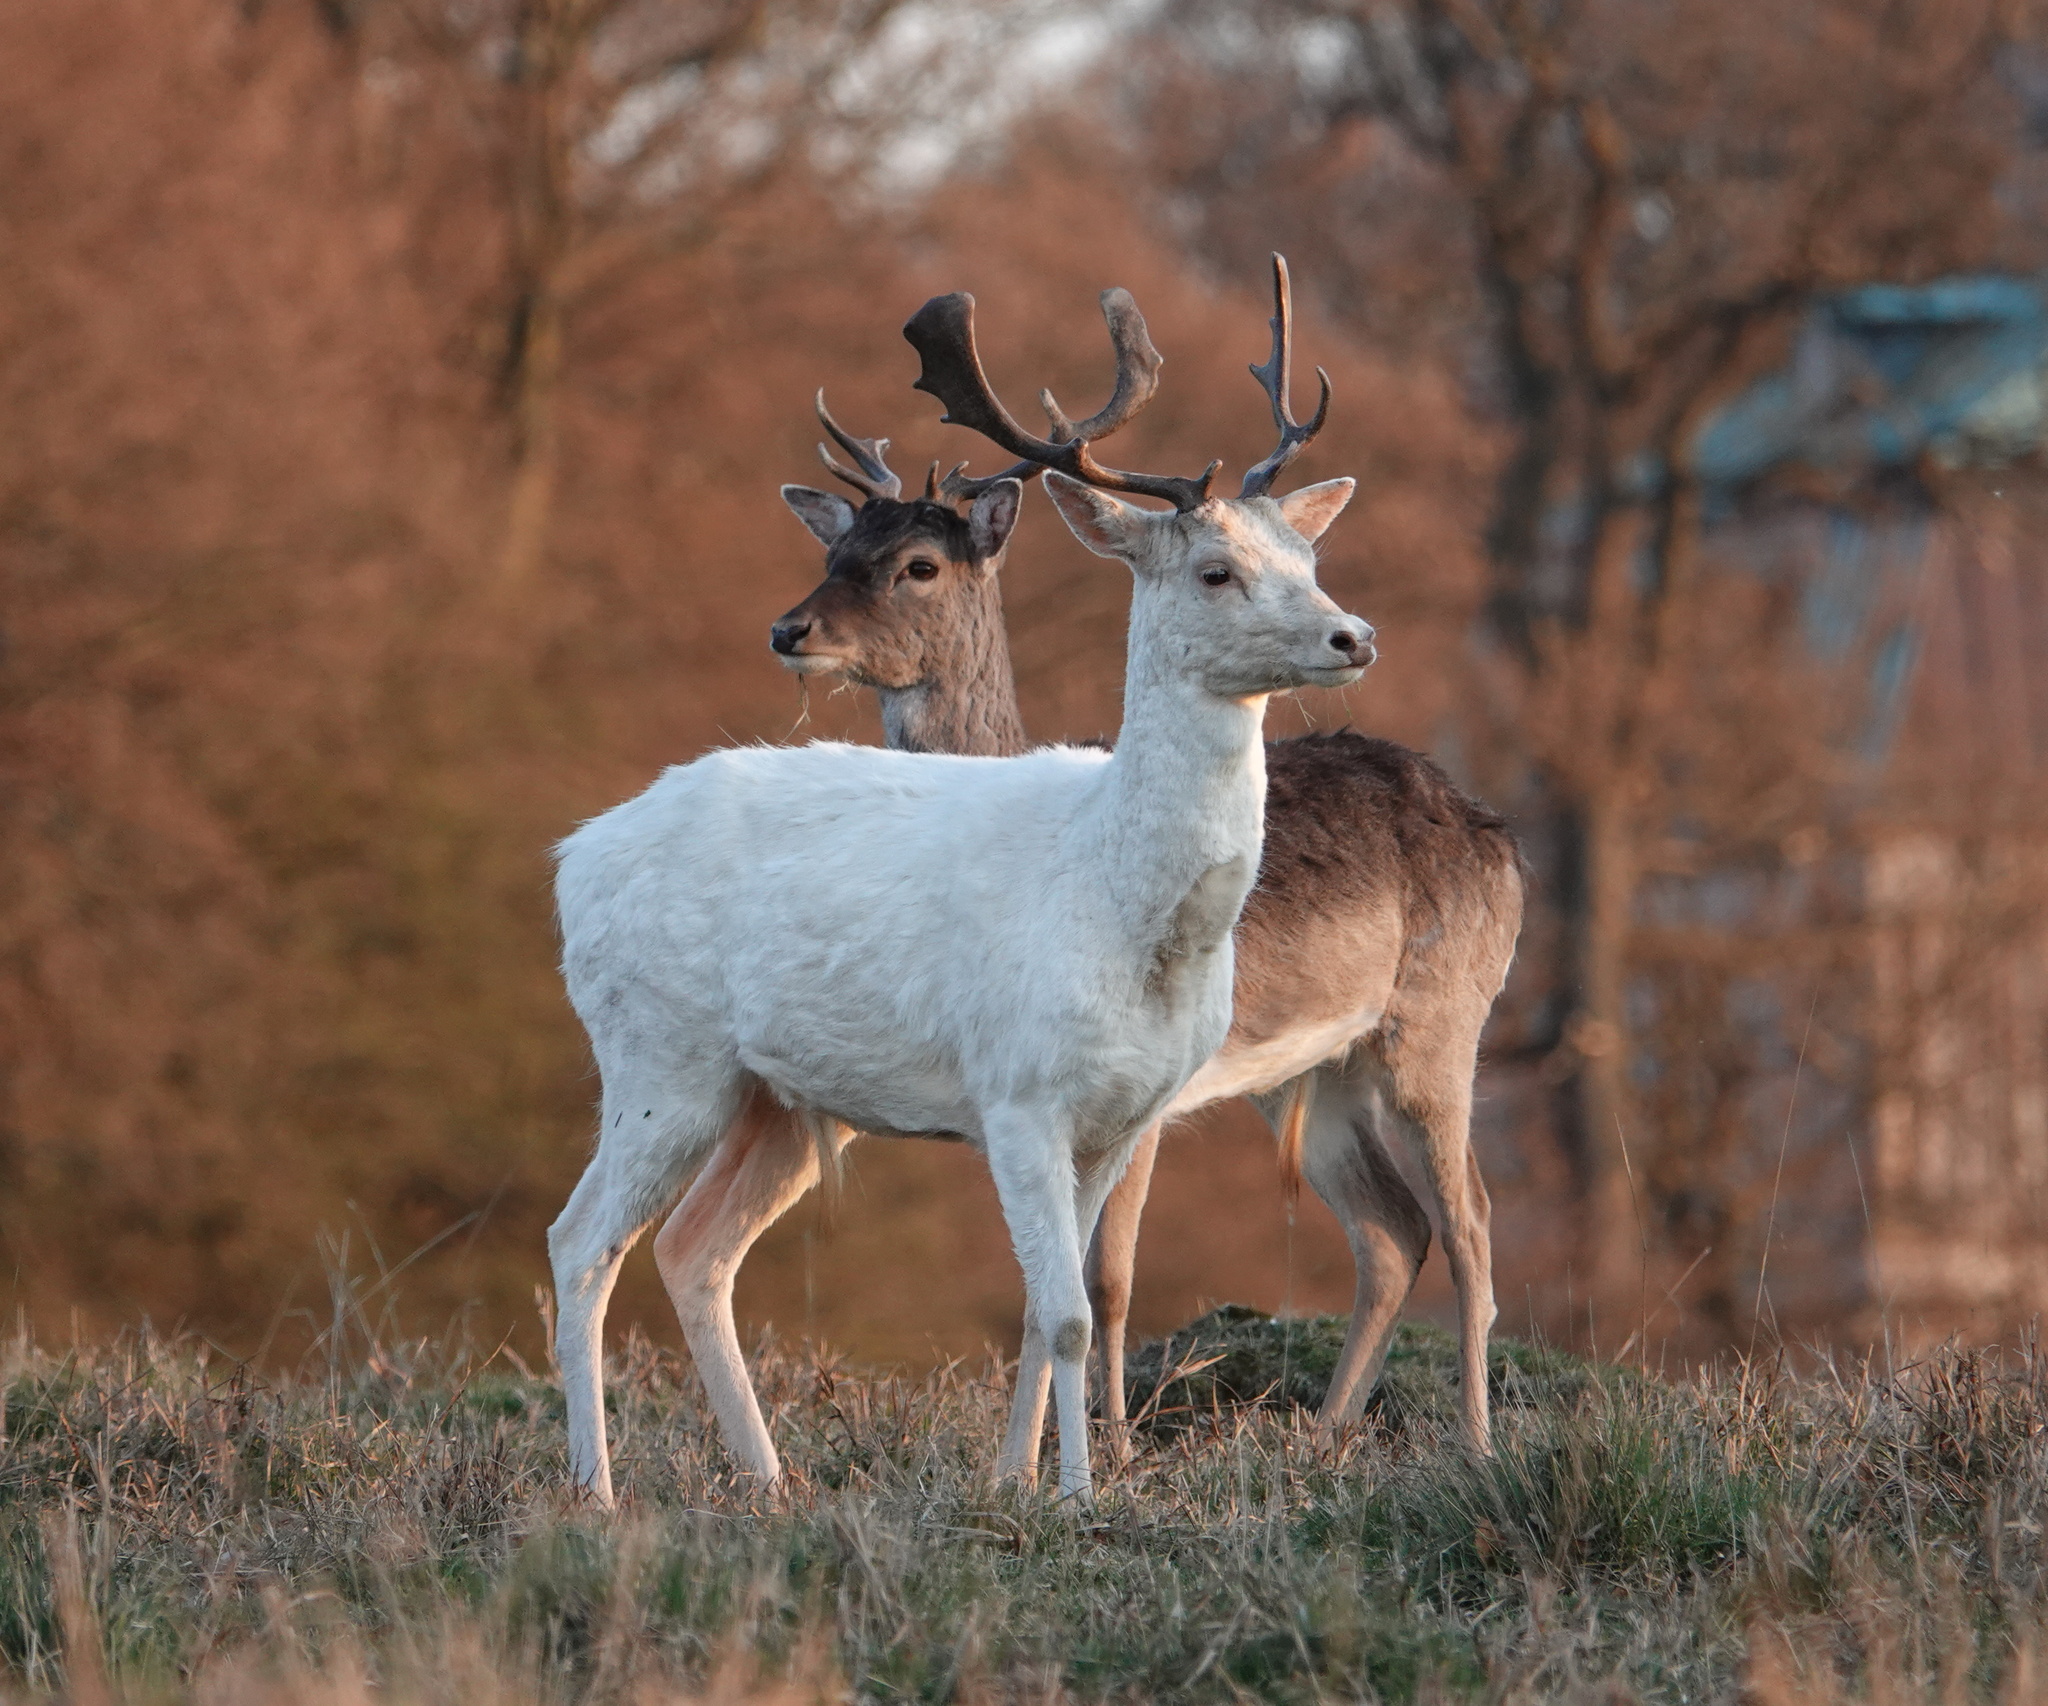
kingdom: Animalia
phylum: Chordata
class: Mammalia
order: Artiodactyla
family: Cervidae
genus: Dama
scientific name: Dama dama
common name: Fallow deer
